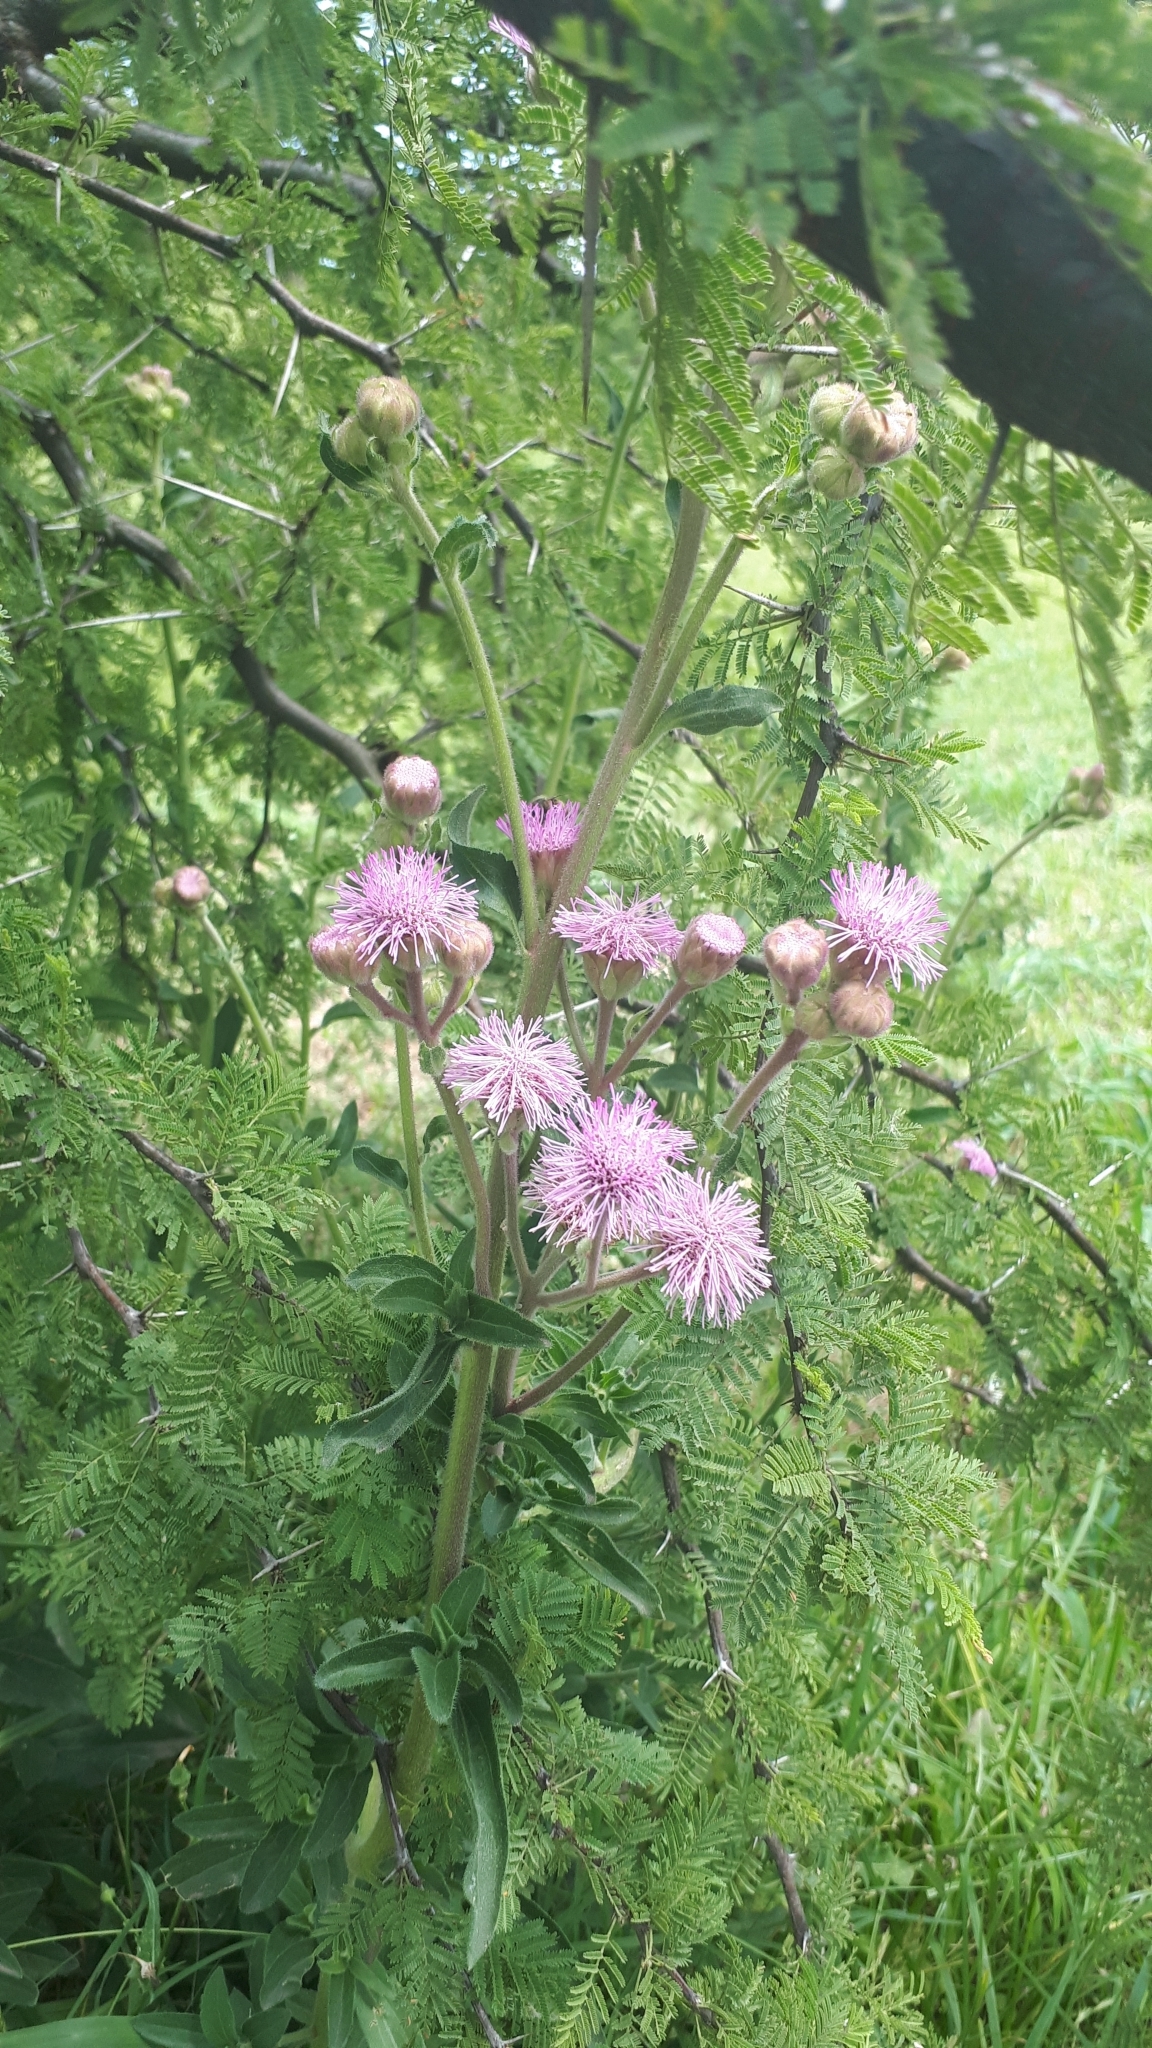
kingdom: Plantae
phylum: Tracheophyta
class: Magnoliopsida
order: Asterales
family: Asteraceae
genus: Campuloclinium
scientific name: Campuloclinium macrocephalum
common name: Pompomweed
